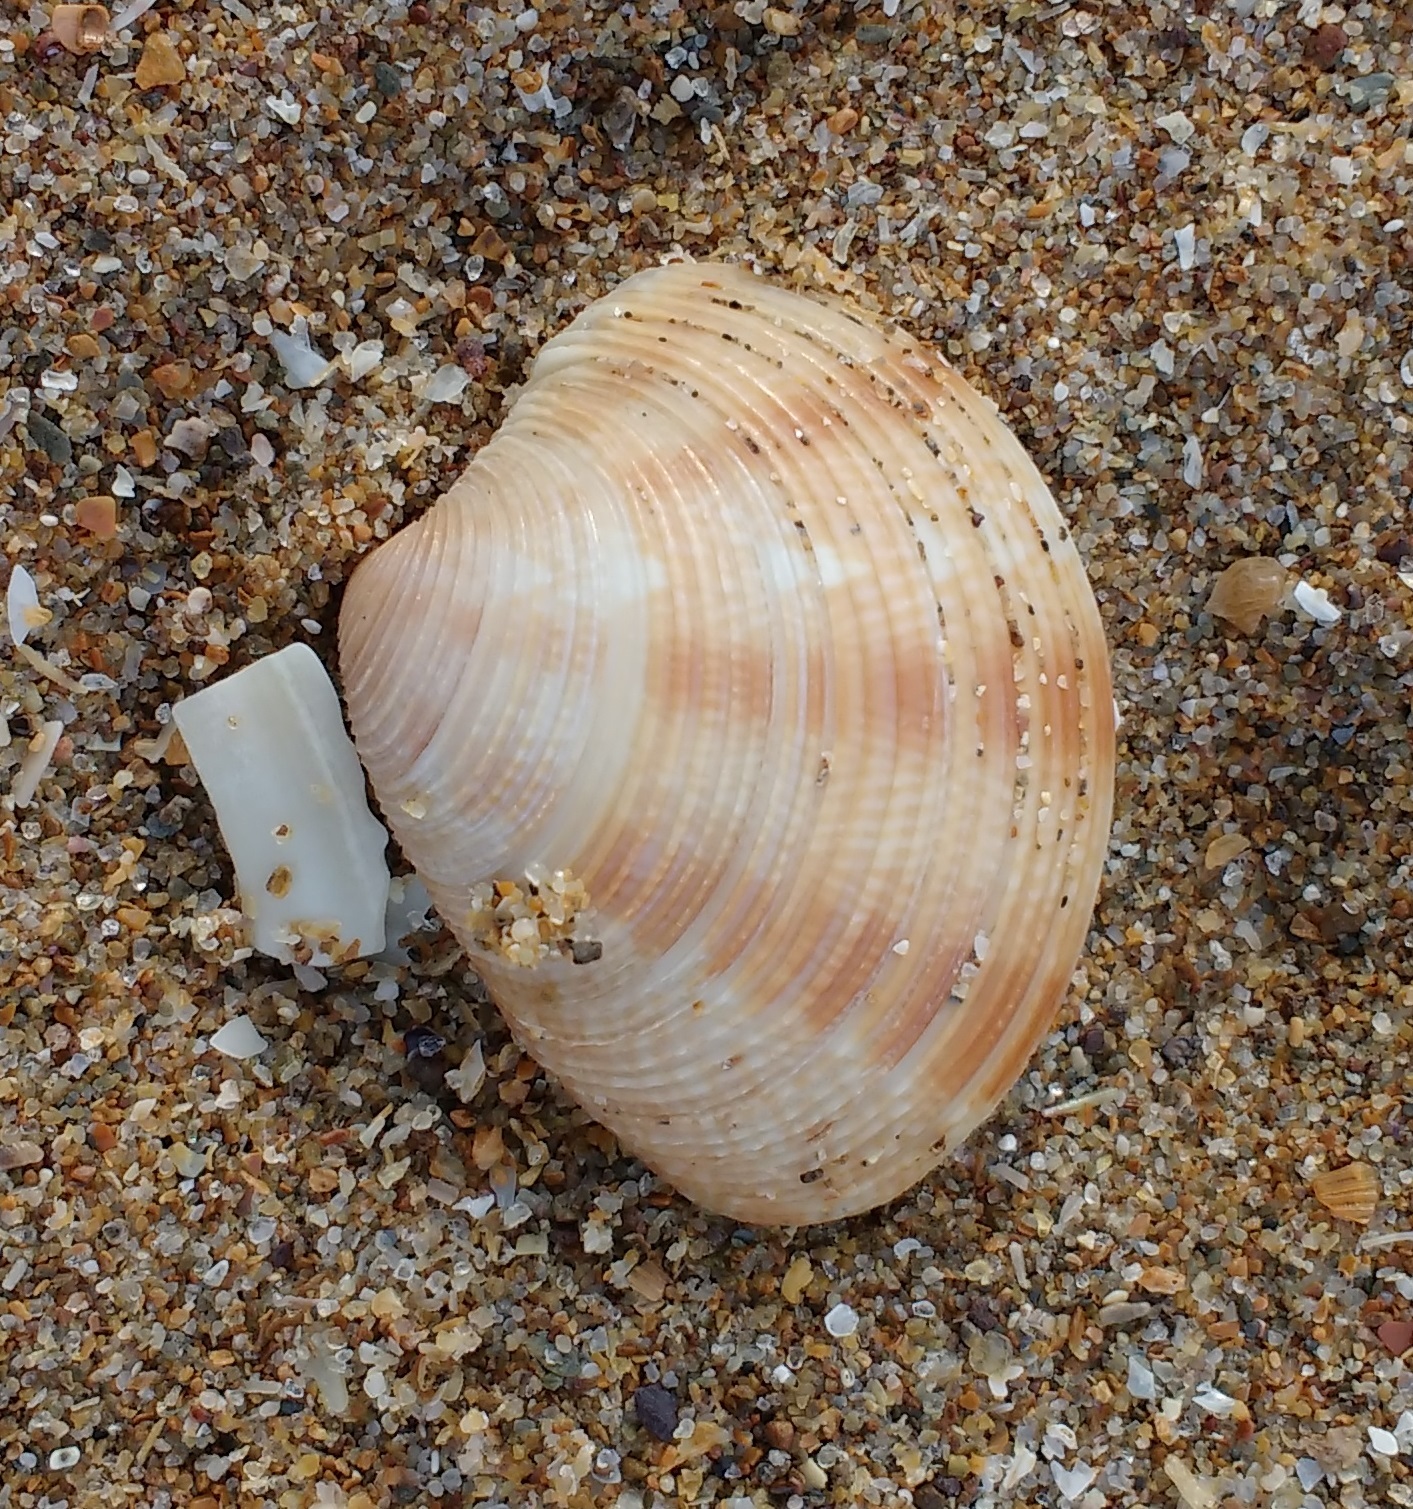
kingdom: Animalia
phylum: Mollusca
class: Bivalvia
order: Venerida
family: Veneridae
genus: Chamelea
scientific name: Chamelea striatula
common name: Striped venus
